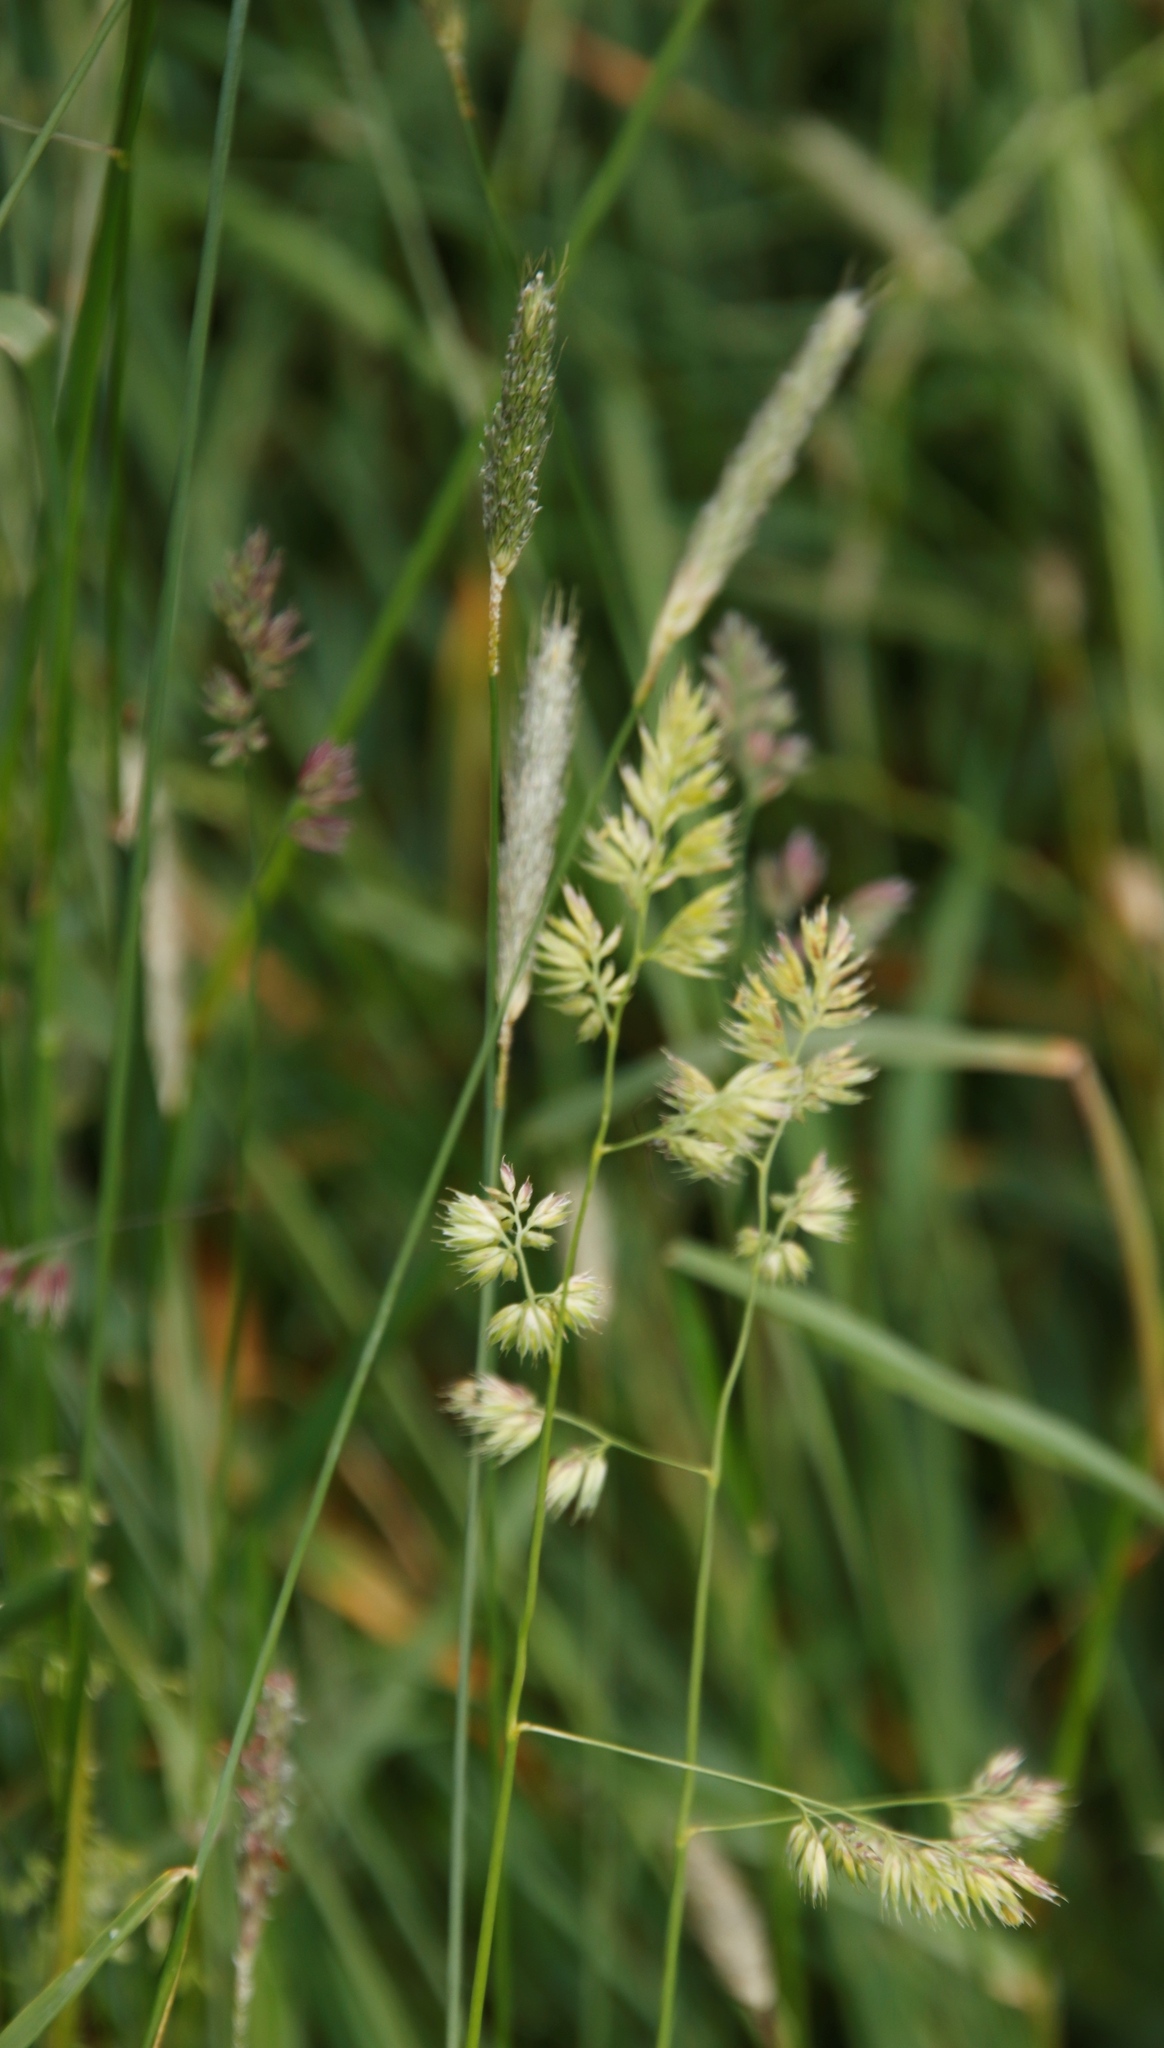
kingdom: Plantae
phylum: Tracheophyta
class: Liliopsida
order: Poales
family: Poaceae
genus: Dactylis
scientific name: Dactylis glomerata
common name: Orchardgrass
